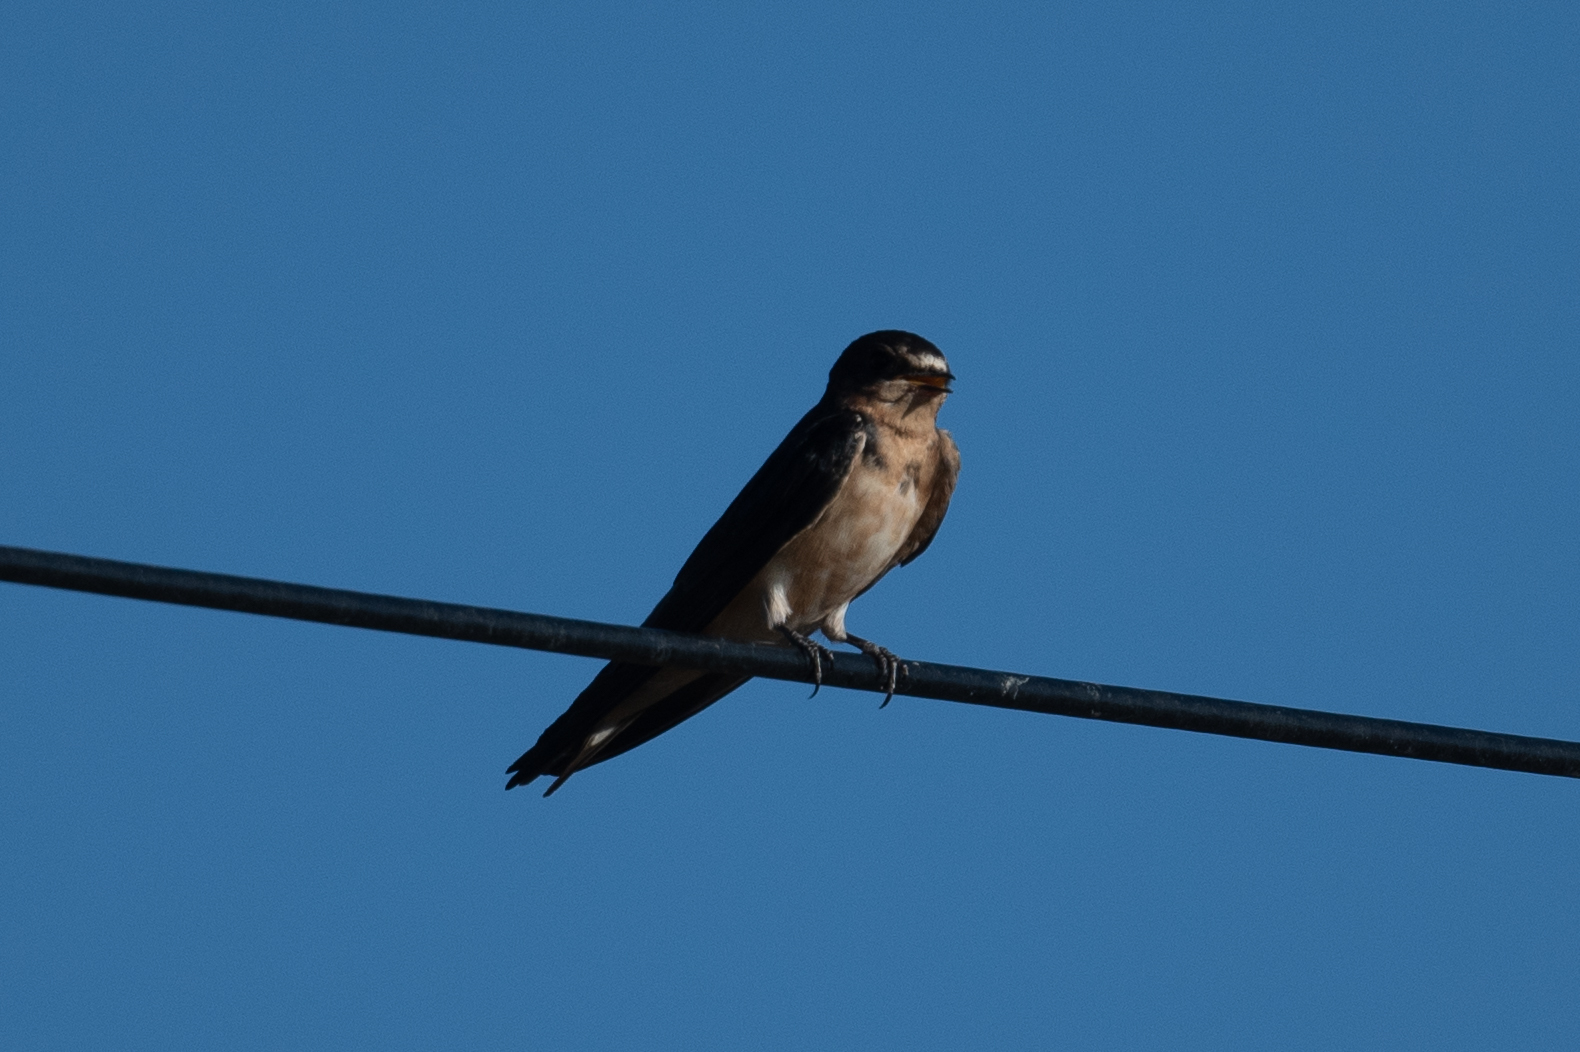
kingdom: Animalia
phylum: Chordata
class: Aves
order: Passeriformes
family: Hirundinidae
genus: Hirundo
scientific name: Hirundo rustica
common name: Barn swallow
